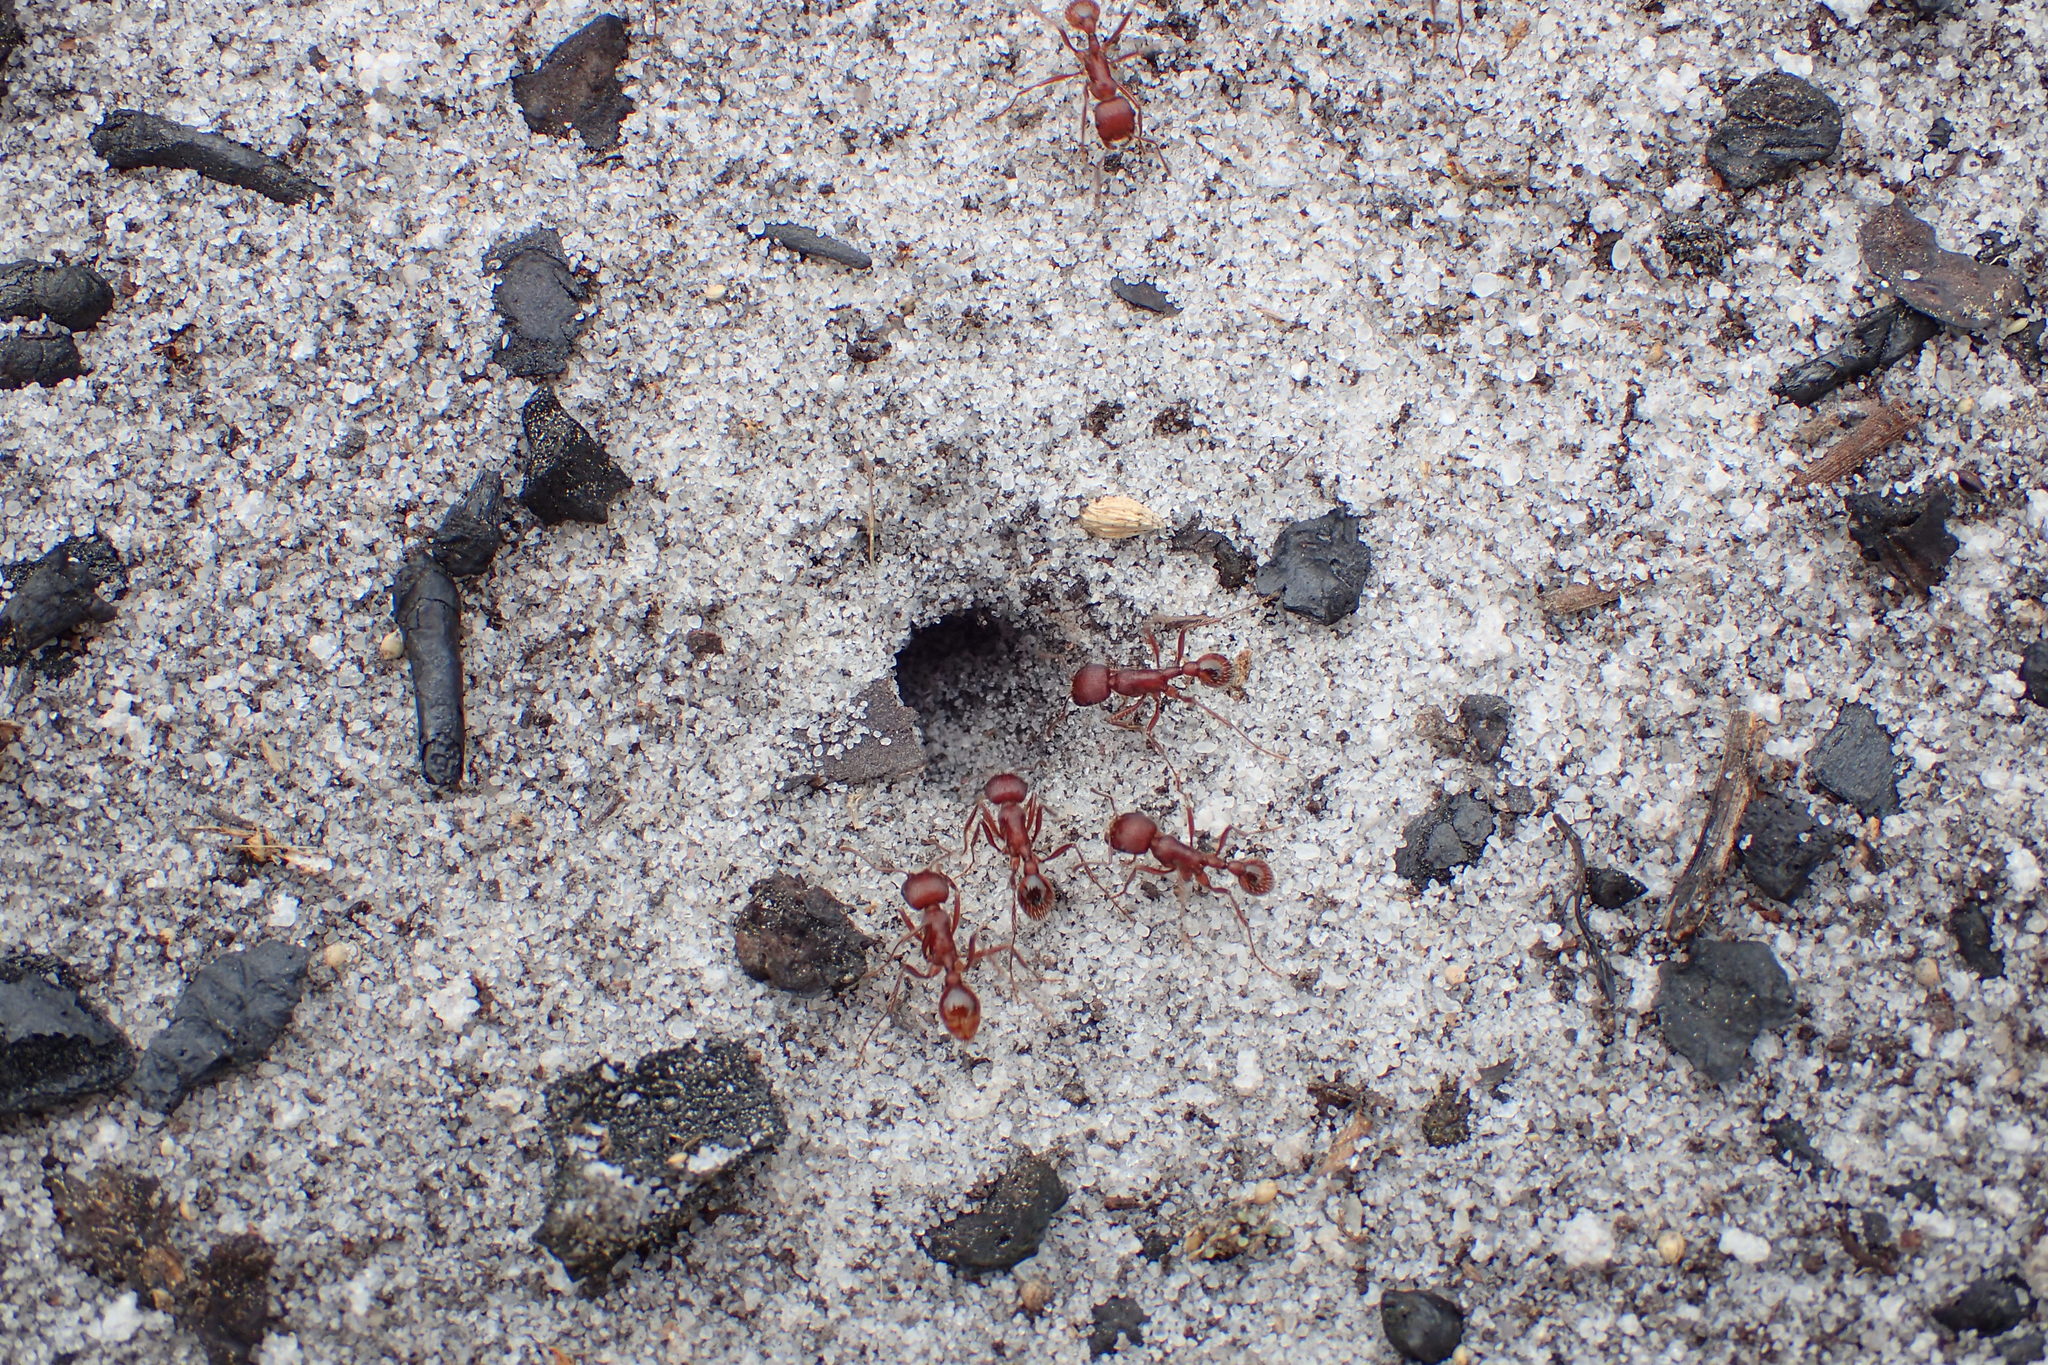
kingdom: Animalia
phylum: Arthropoda
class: Insecta
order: Hymenoptera
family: Formicidae
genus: Pogonomyrmex
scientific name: Pogonomyrmex badius
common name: Florida harvester ant
